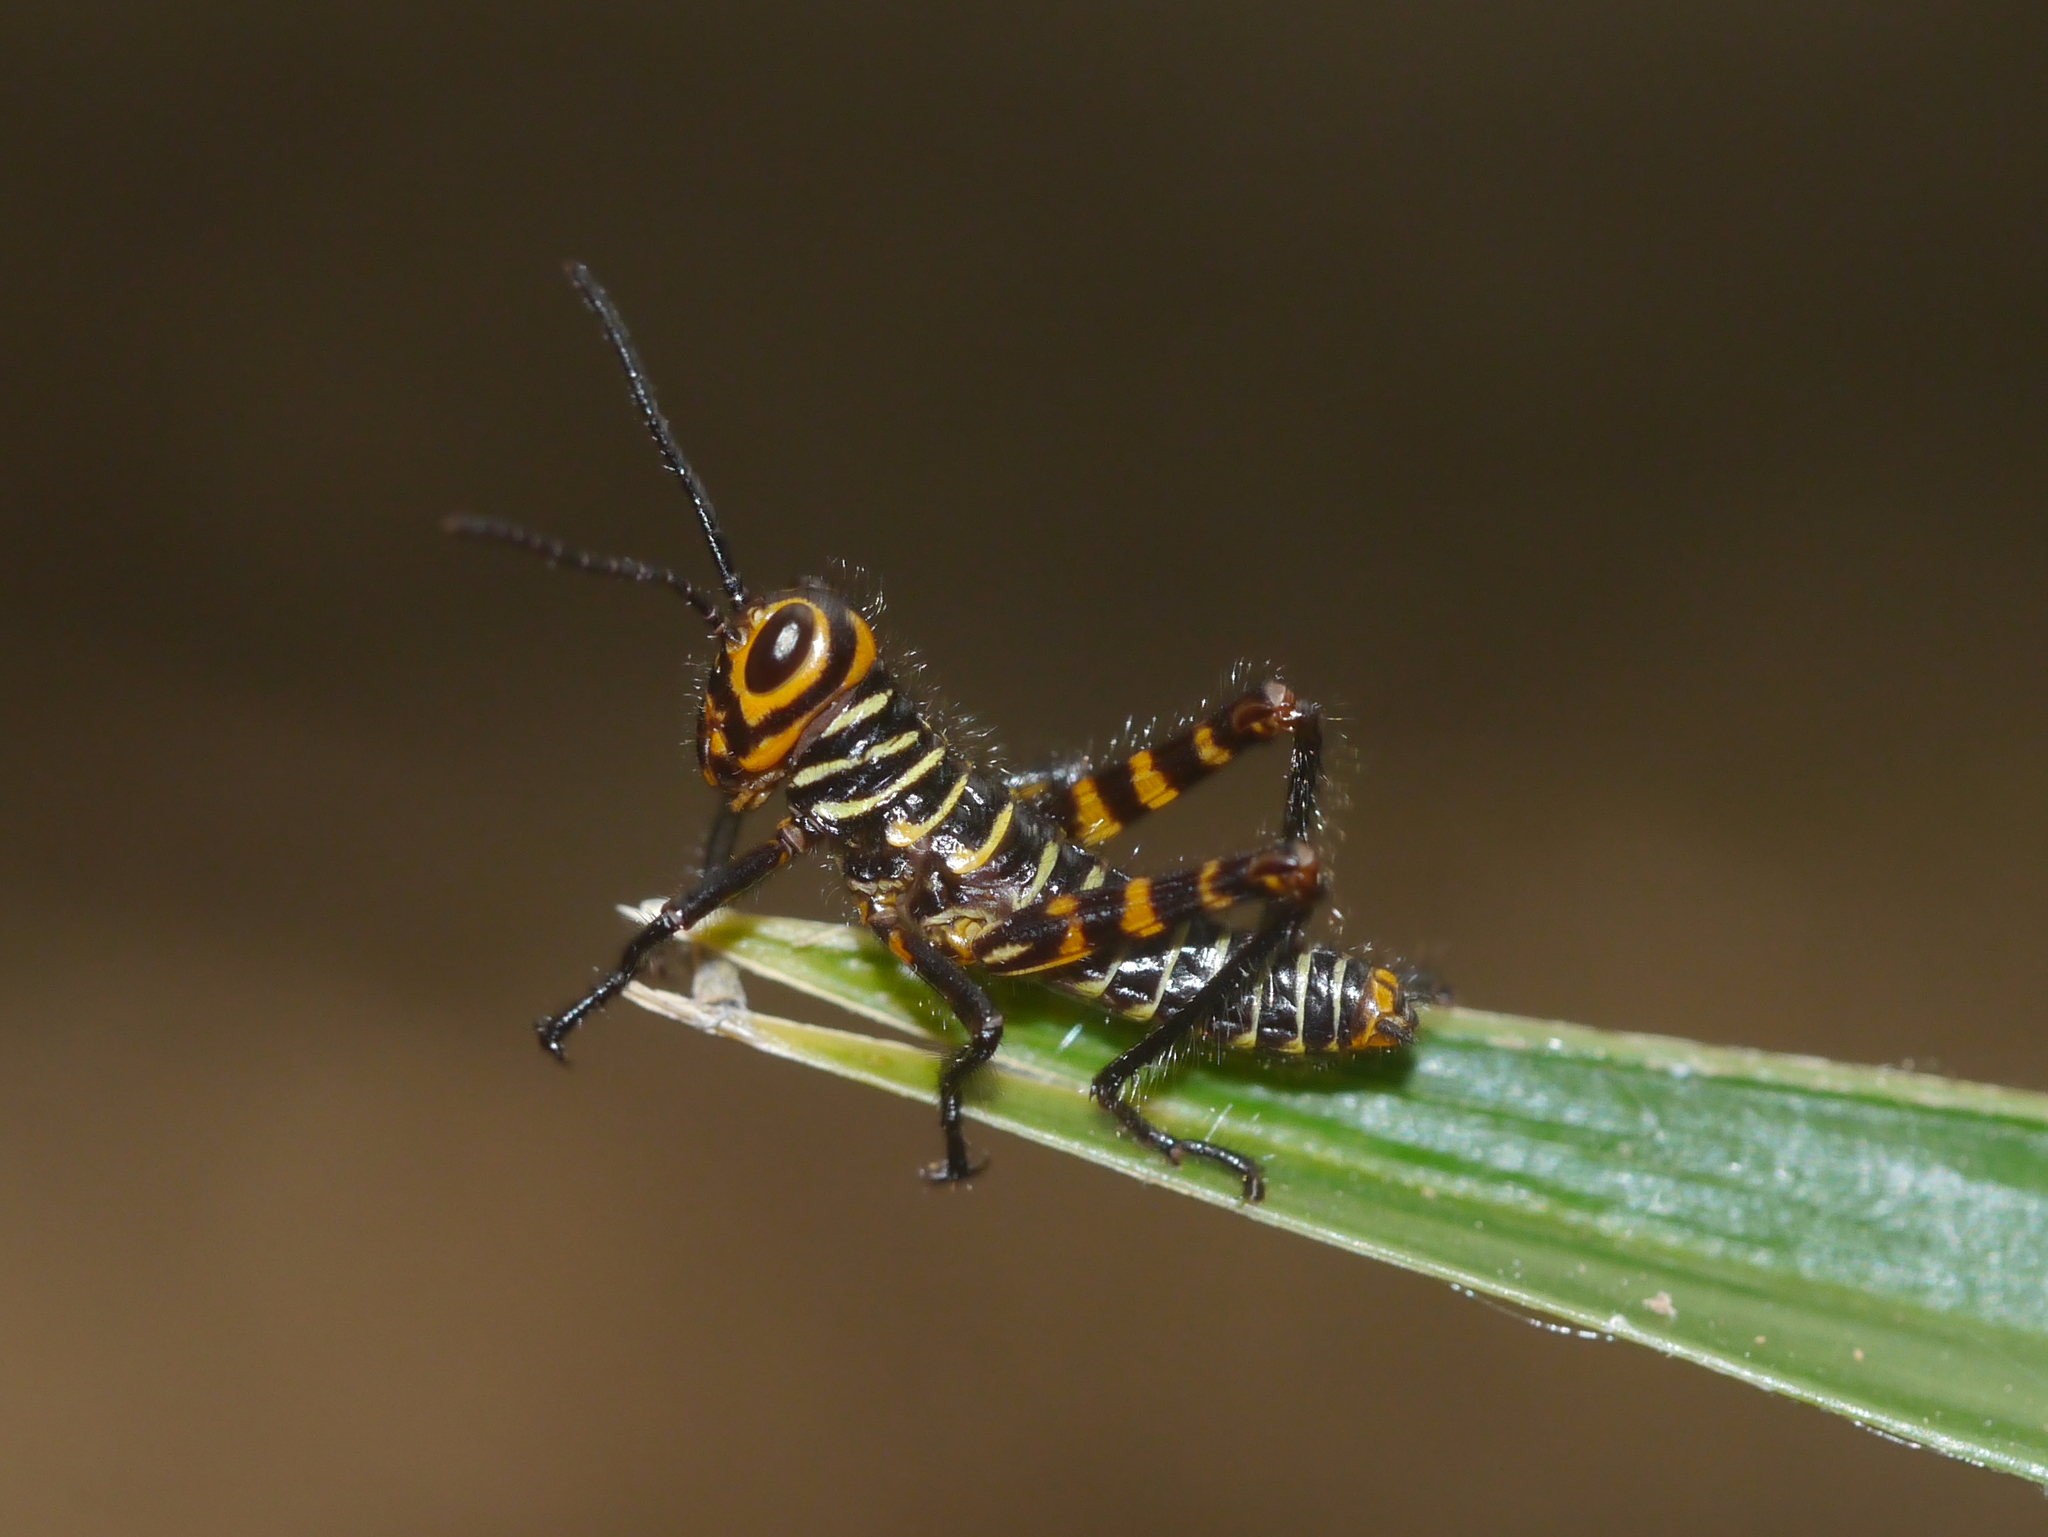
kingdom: Animalia
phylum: Arthropoda
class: Insecta
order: Orthoptera
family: Romaleidae
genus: Tropidacris
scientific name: Tropidacris cristata
